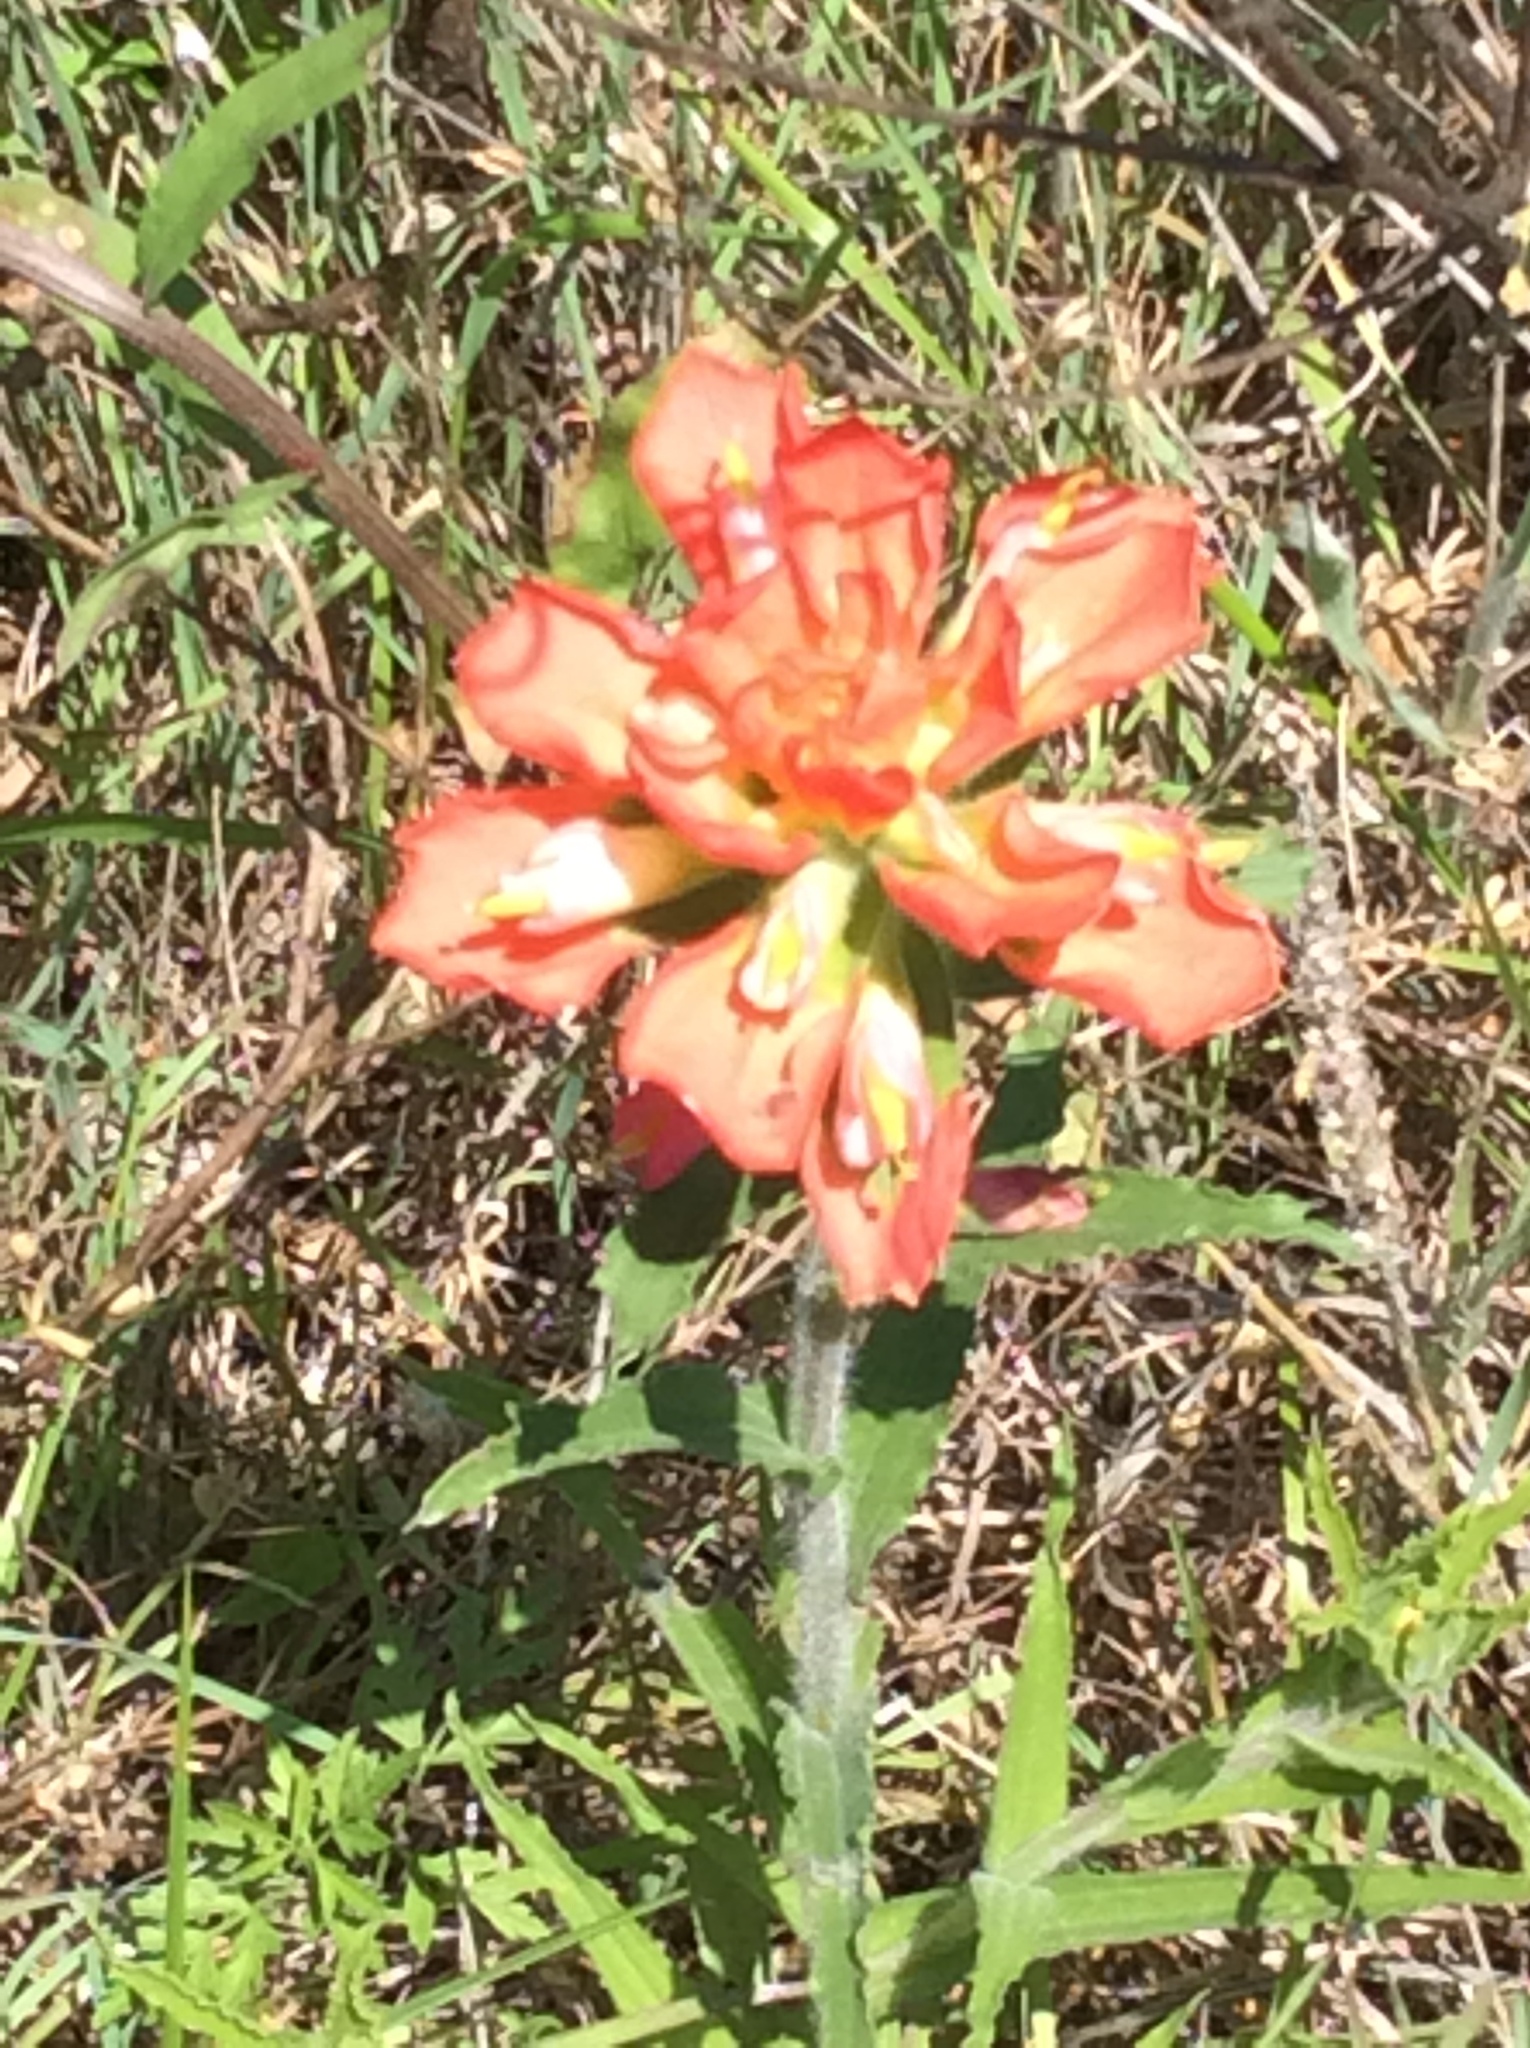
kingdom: Plantae
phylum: Tracheophyta
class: Magnoliopsida
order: Lamiales
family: Orobanchaceae
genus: Castilleja
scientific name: Castilleja indivisa
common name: Texas paintbrush
